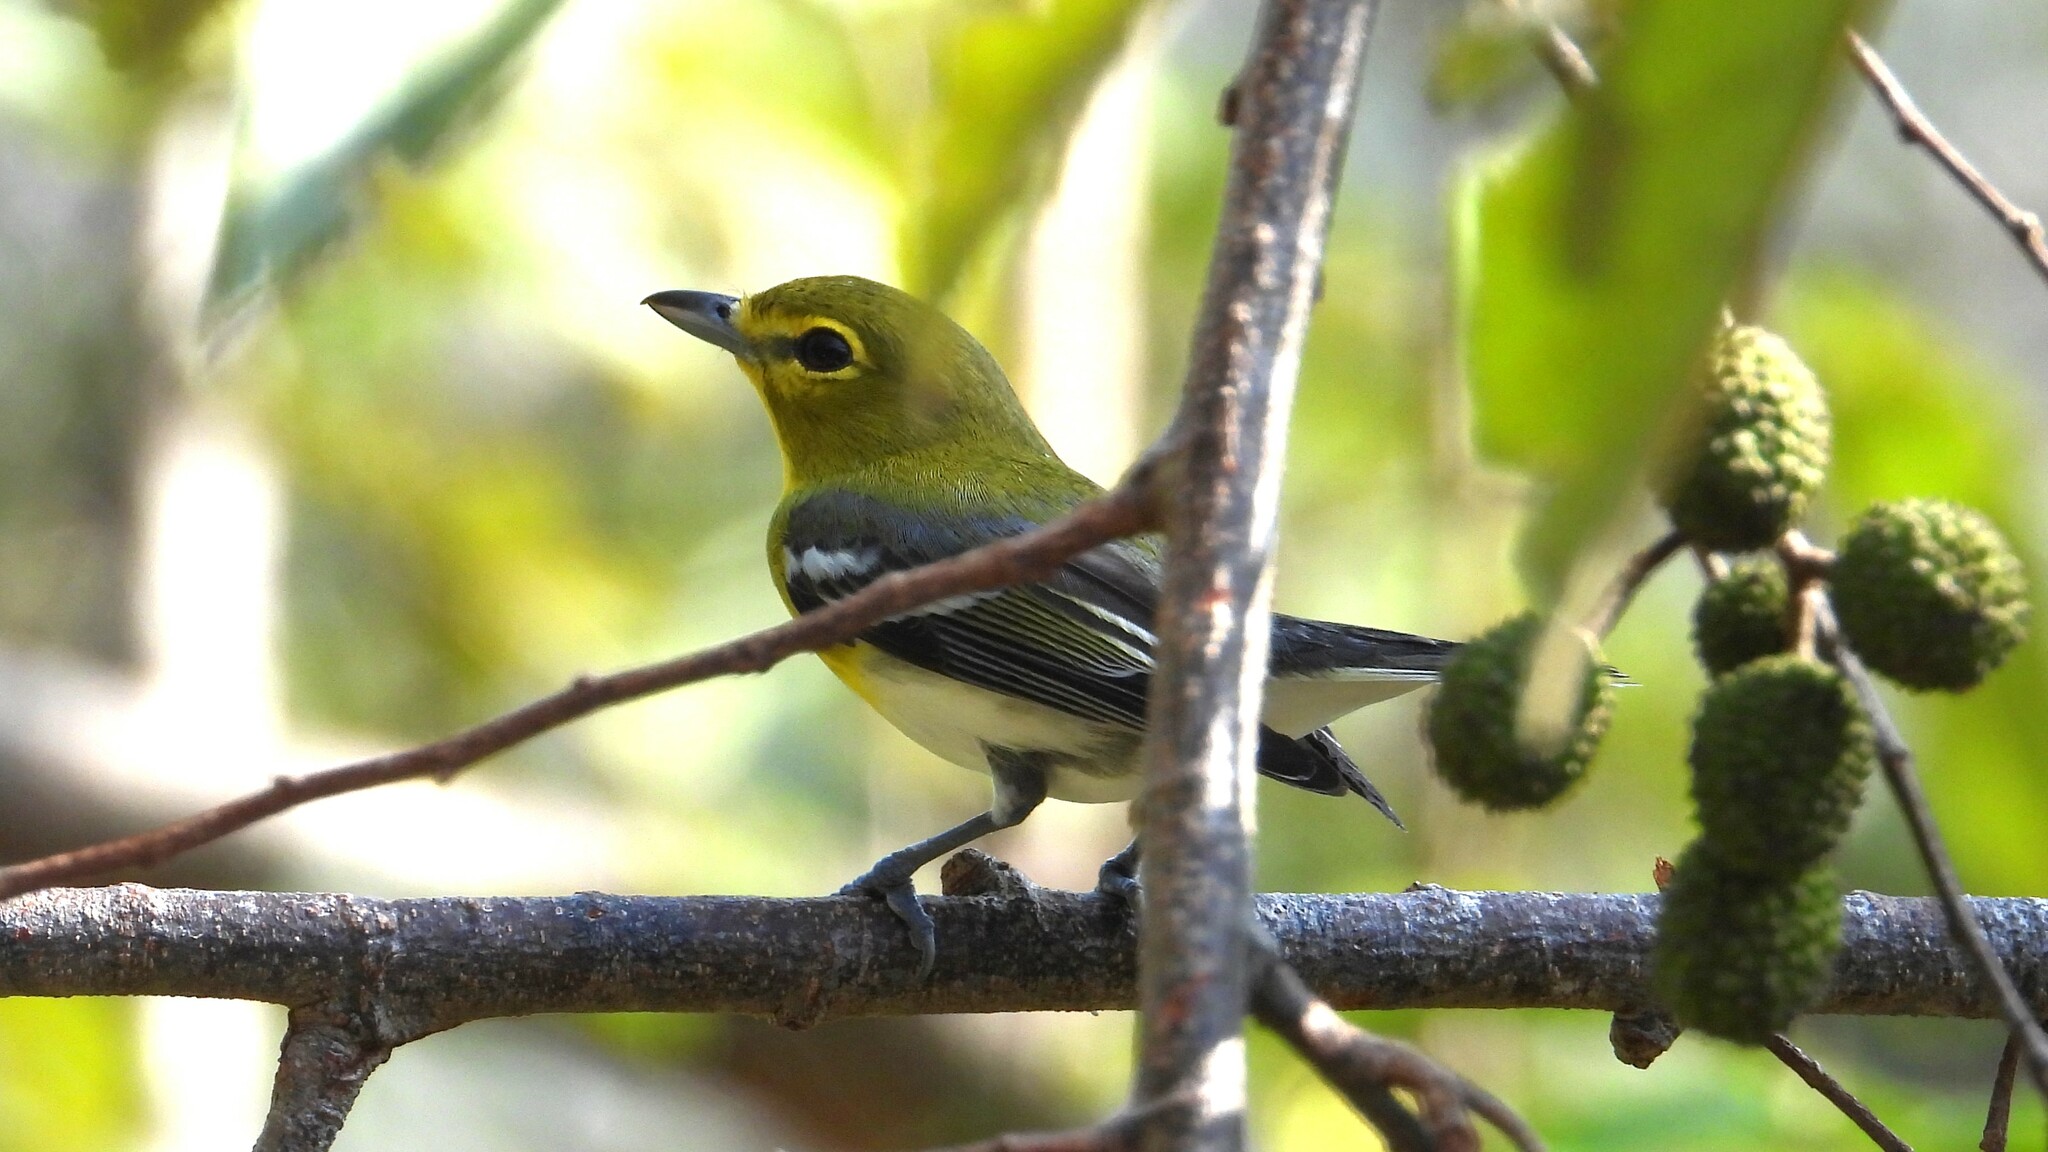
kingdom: Animalia
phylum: Chordata
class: Aves
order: Passeriformes
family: Vireonidae
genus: Vireo
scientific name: Vireo flavifrons
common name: Yellow-throated vireo
